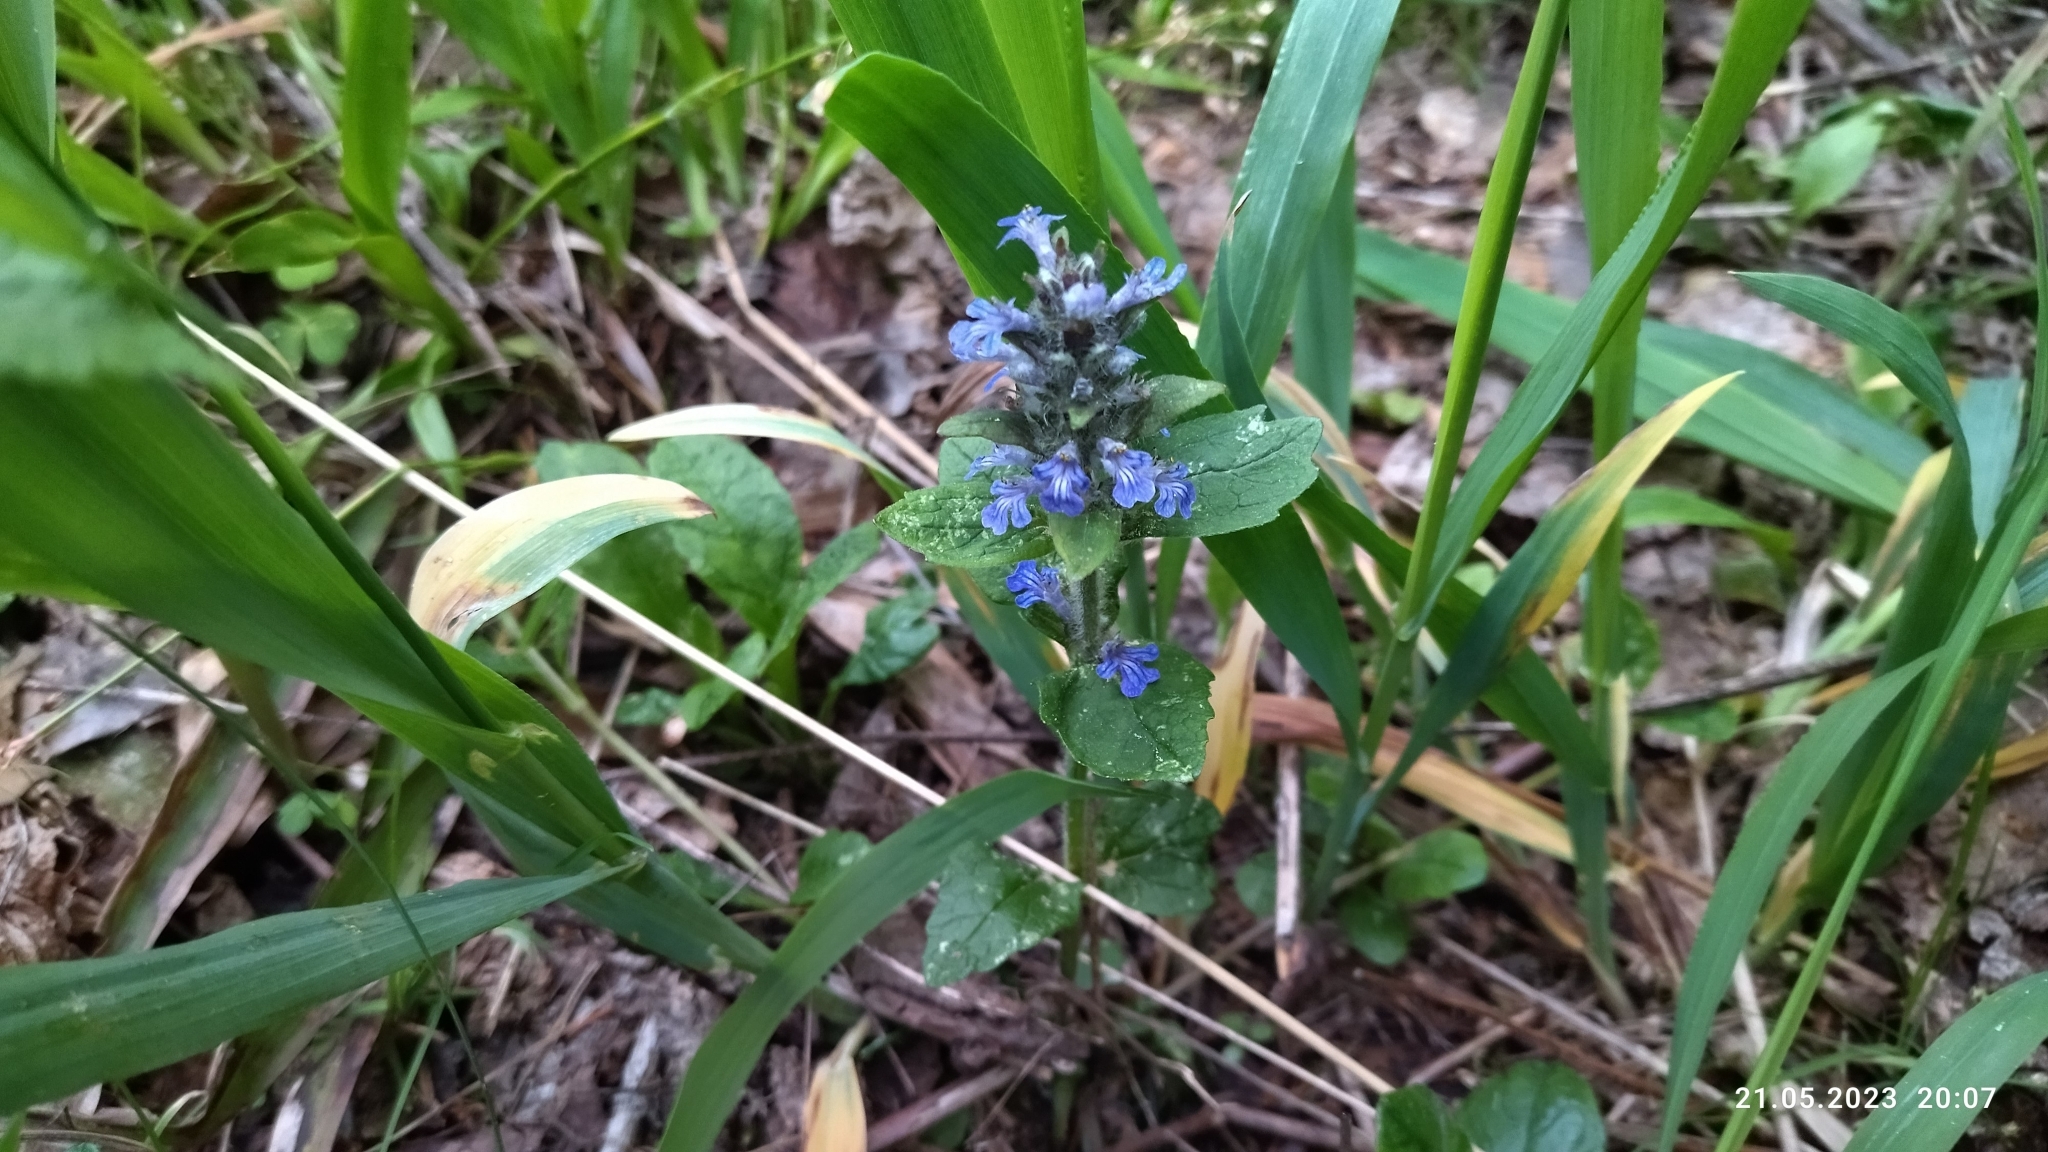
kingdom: Plantae
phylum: Tracheophyta
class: Magnoliopsida
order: Lamiales
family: Lamiaceae
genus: Ajuga
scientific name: Ajuga reptans
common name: Bugle
